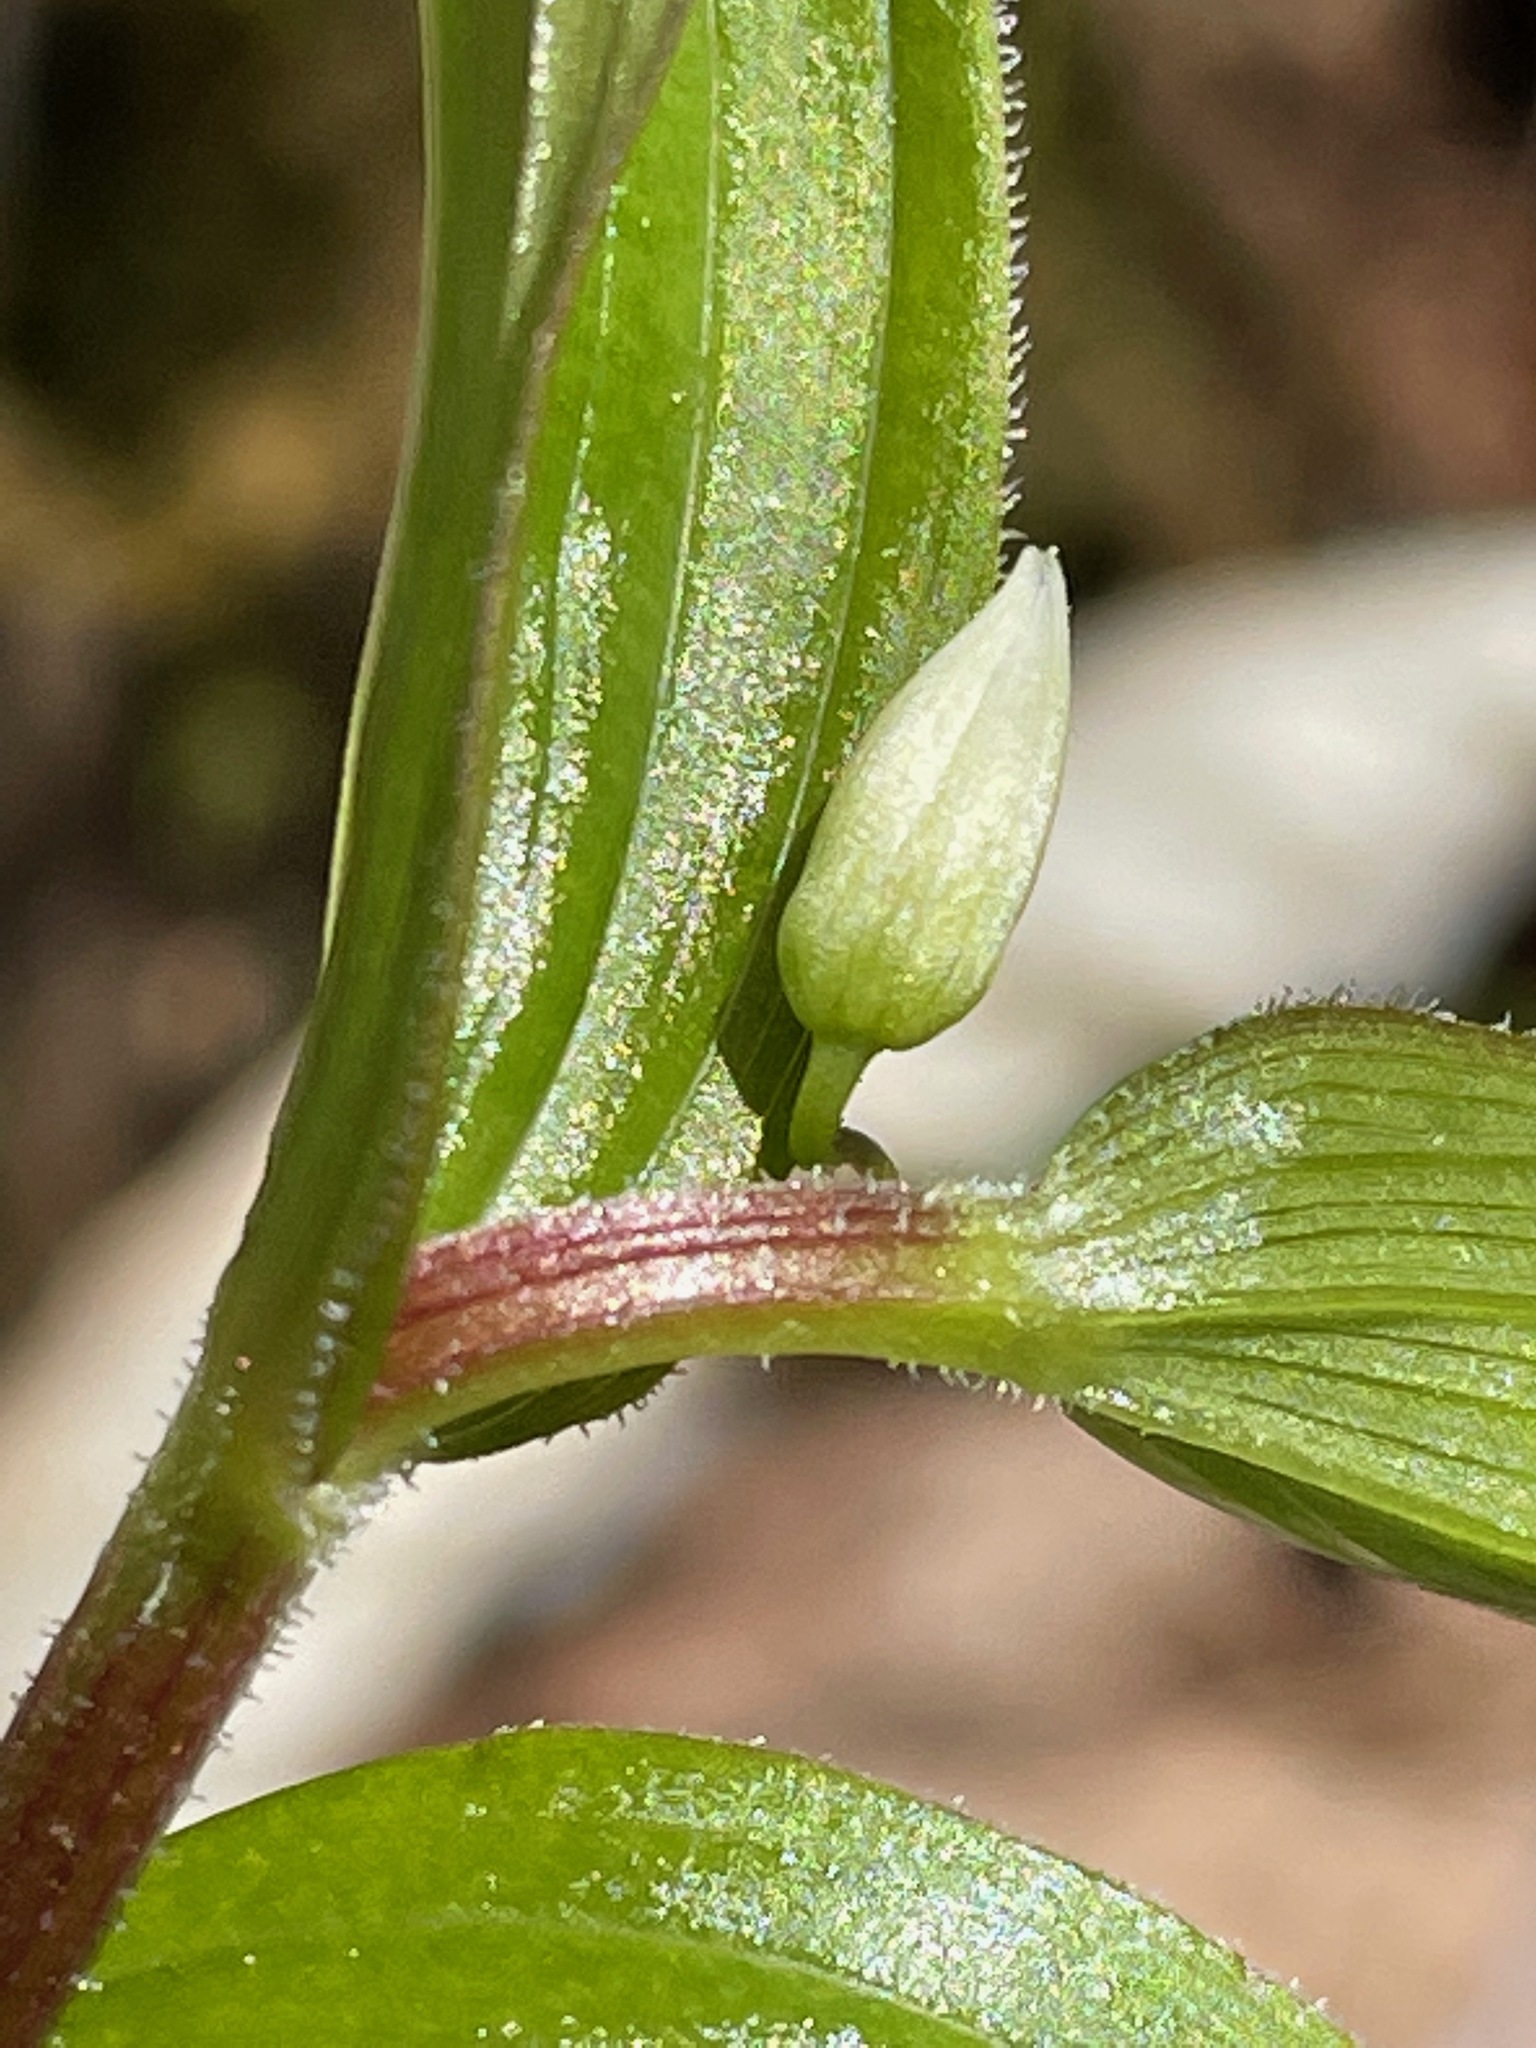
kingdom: Plantae
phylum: Tracheophyta
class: Liliopsida
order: Liliales
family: Liliaceae
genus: Streptopus
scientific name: Streptopus lanceolatus
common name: Rose mandarin
